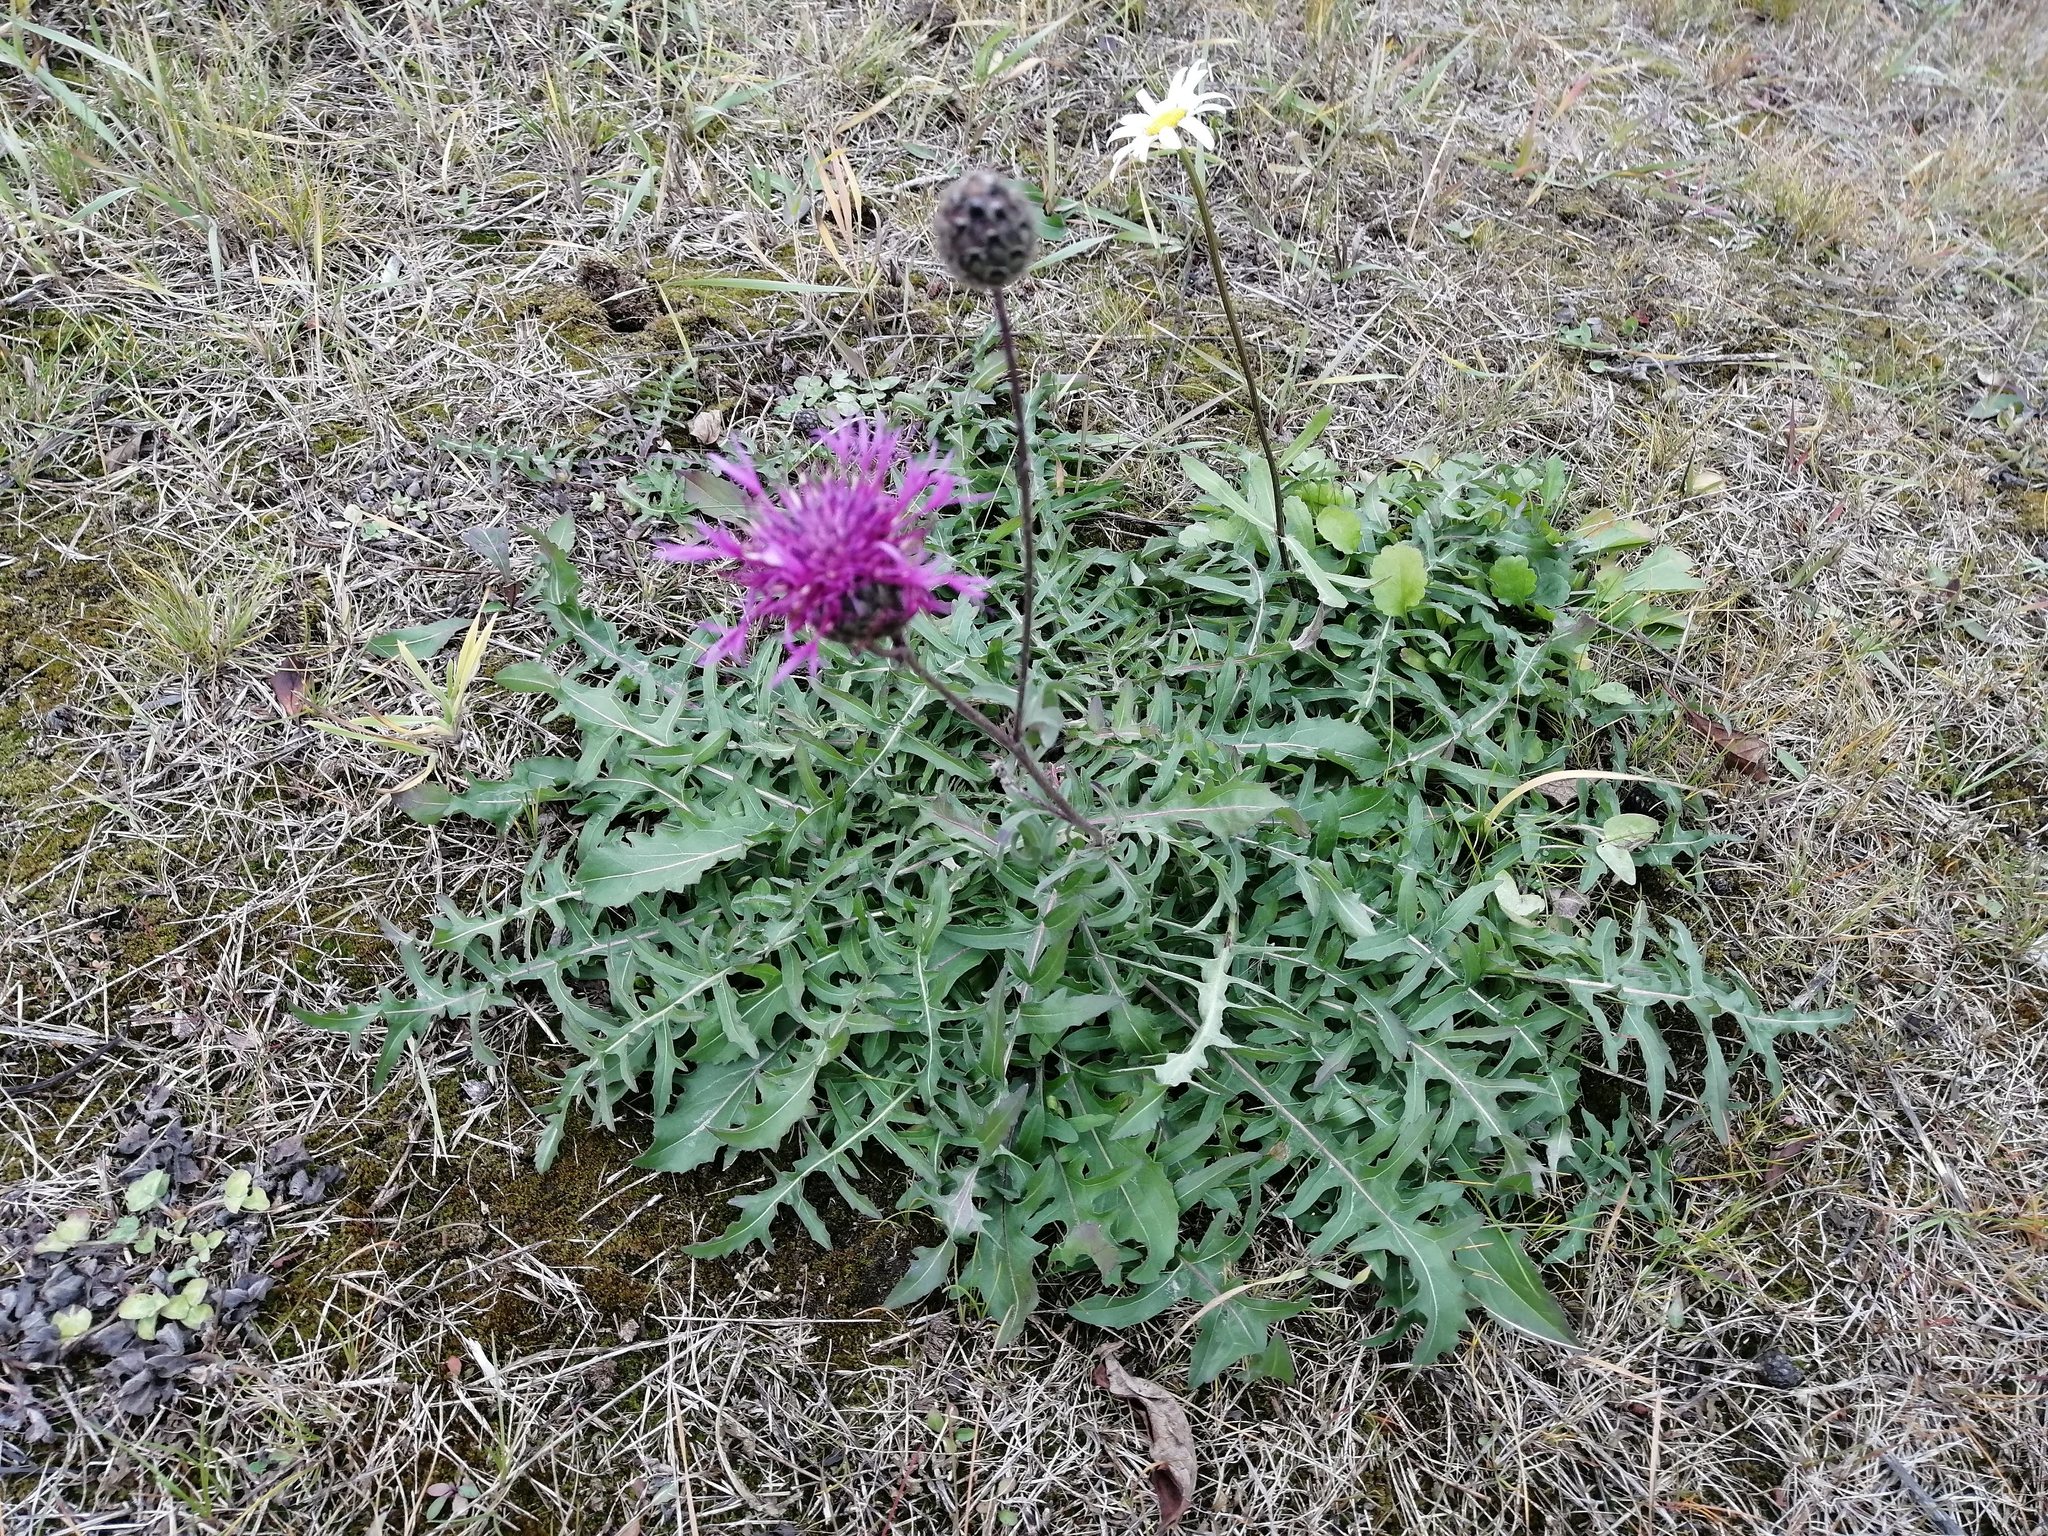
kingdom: Plantae
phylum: Tracheophyta
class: Magnoliopsida
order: Asterales
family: Asteraceae
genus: Centaurea
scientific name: Centaurea scabiosa
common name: Greater knapweed
